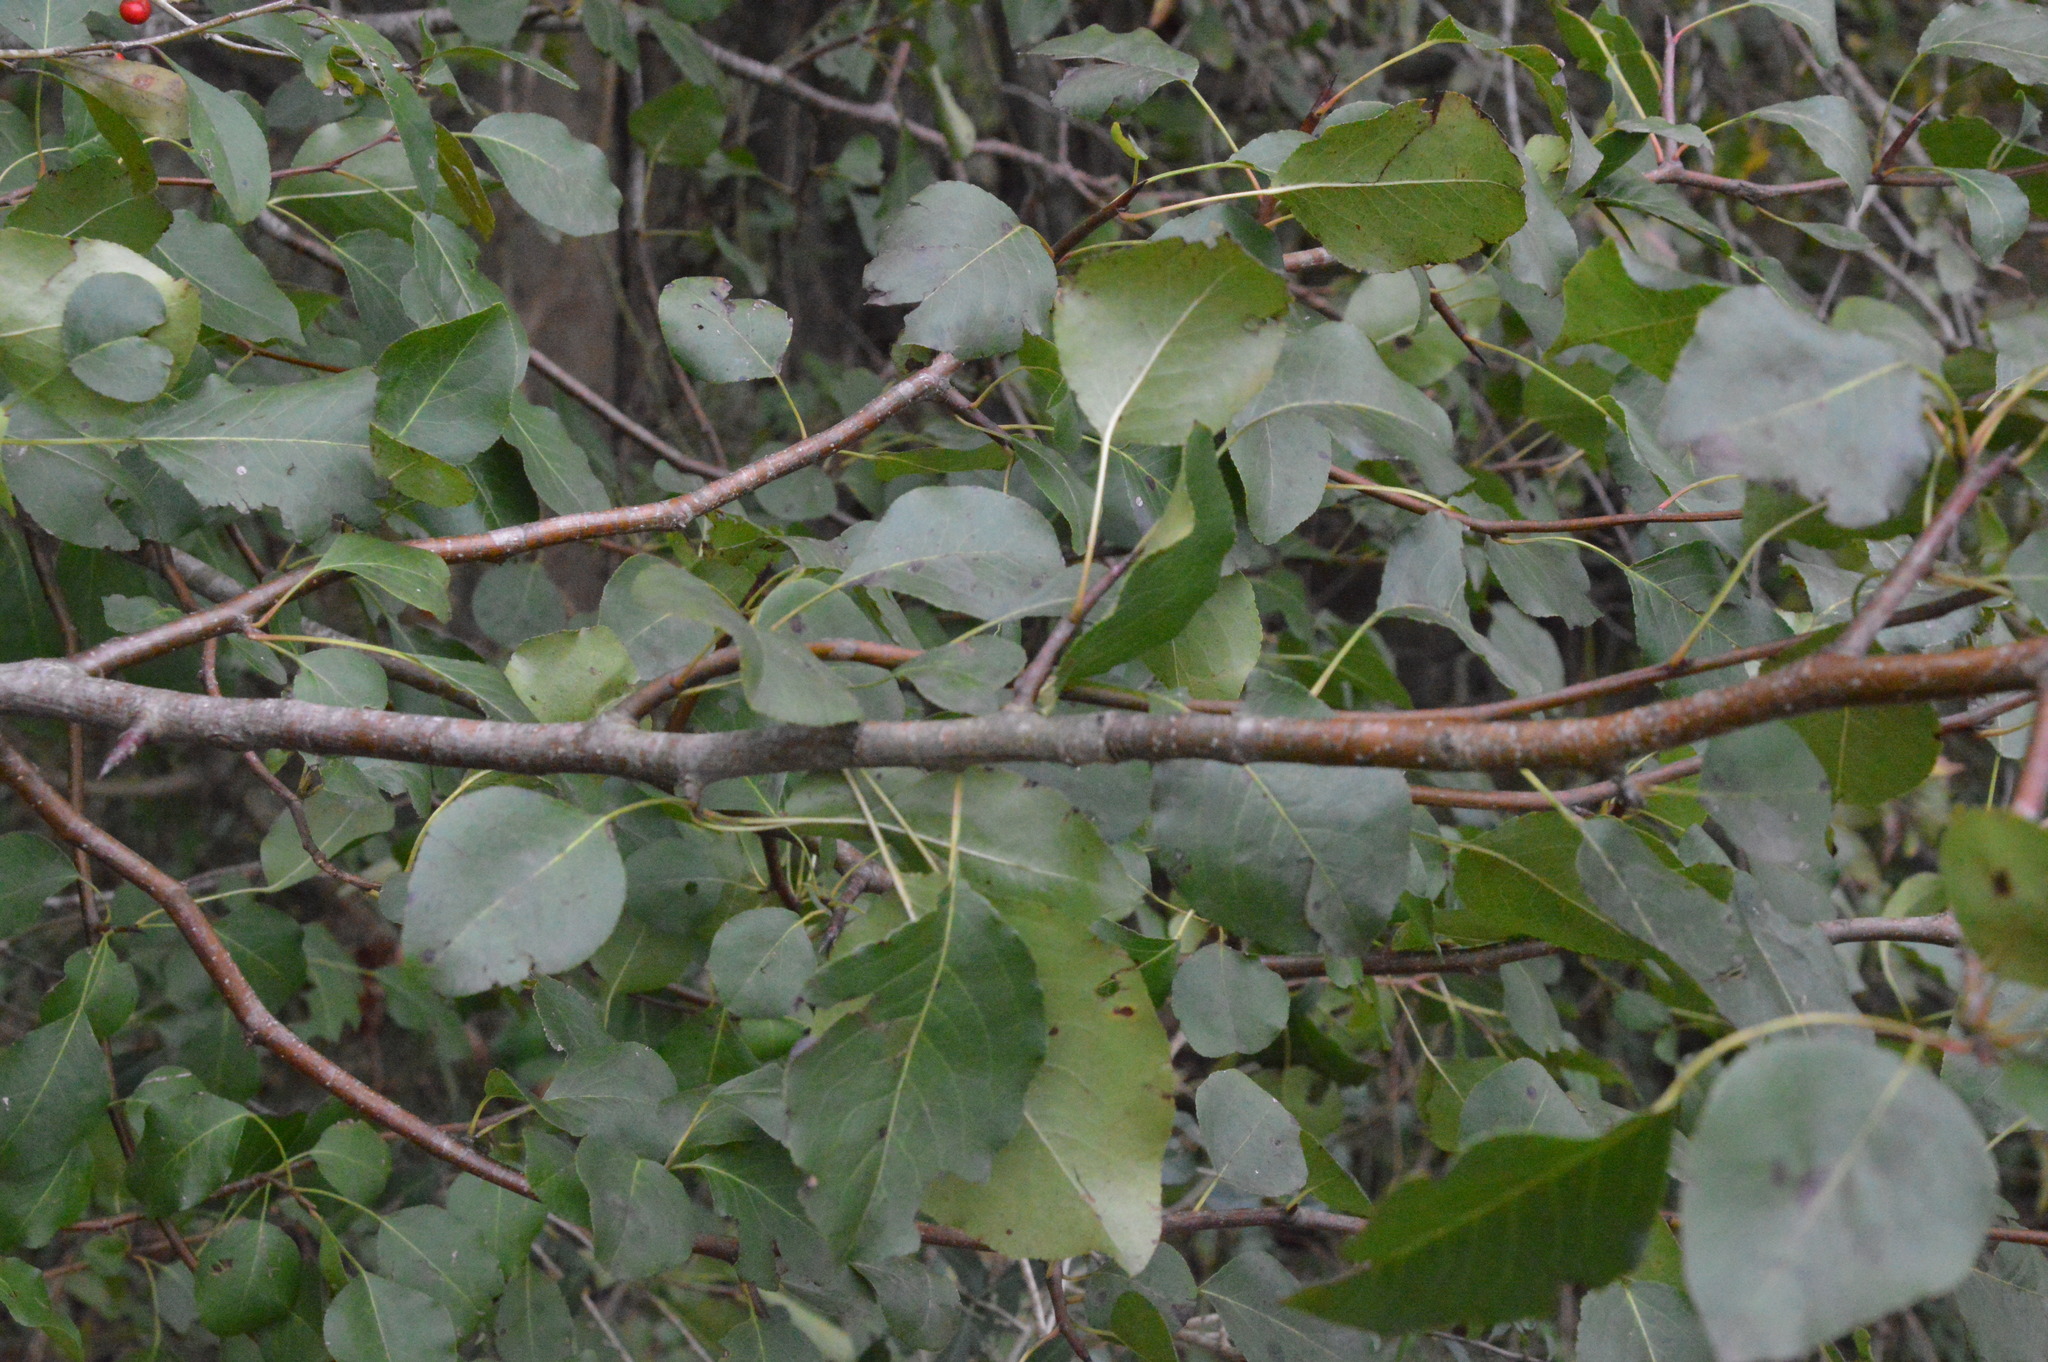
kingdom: Plantae
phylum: Tracheophyta
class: Magnoliopsida
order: Rosales
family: Rosaceae
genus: Pyrus
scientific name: Pyrus calleryana
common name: Callery pear
